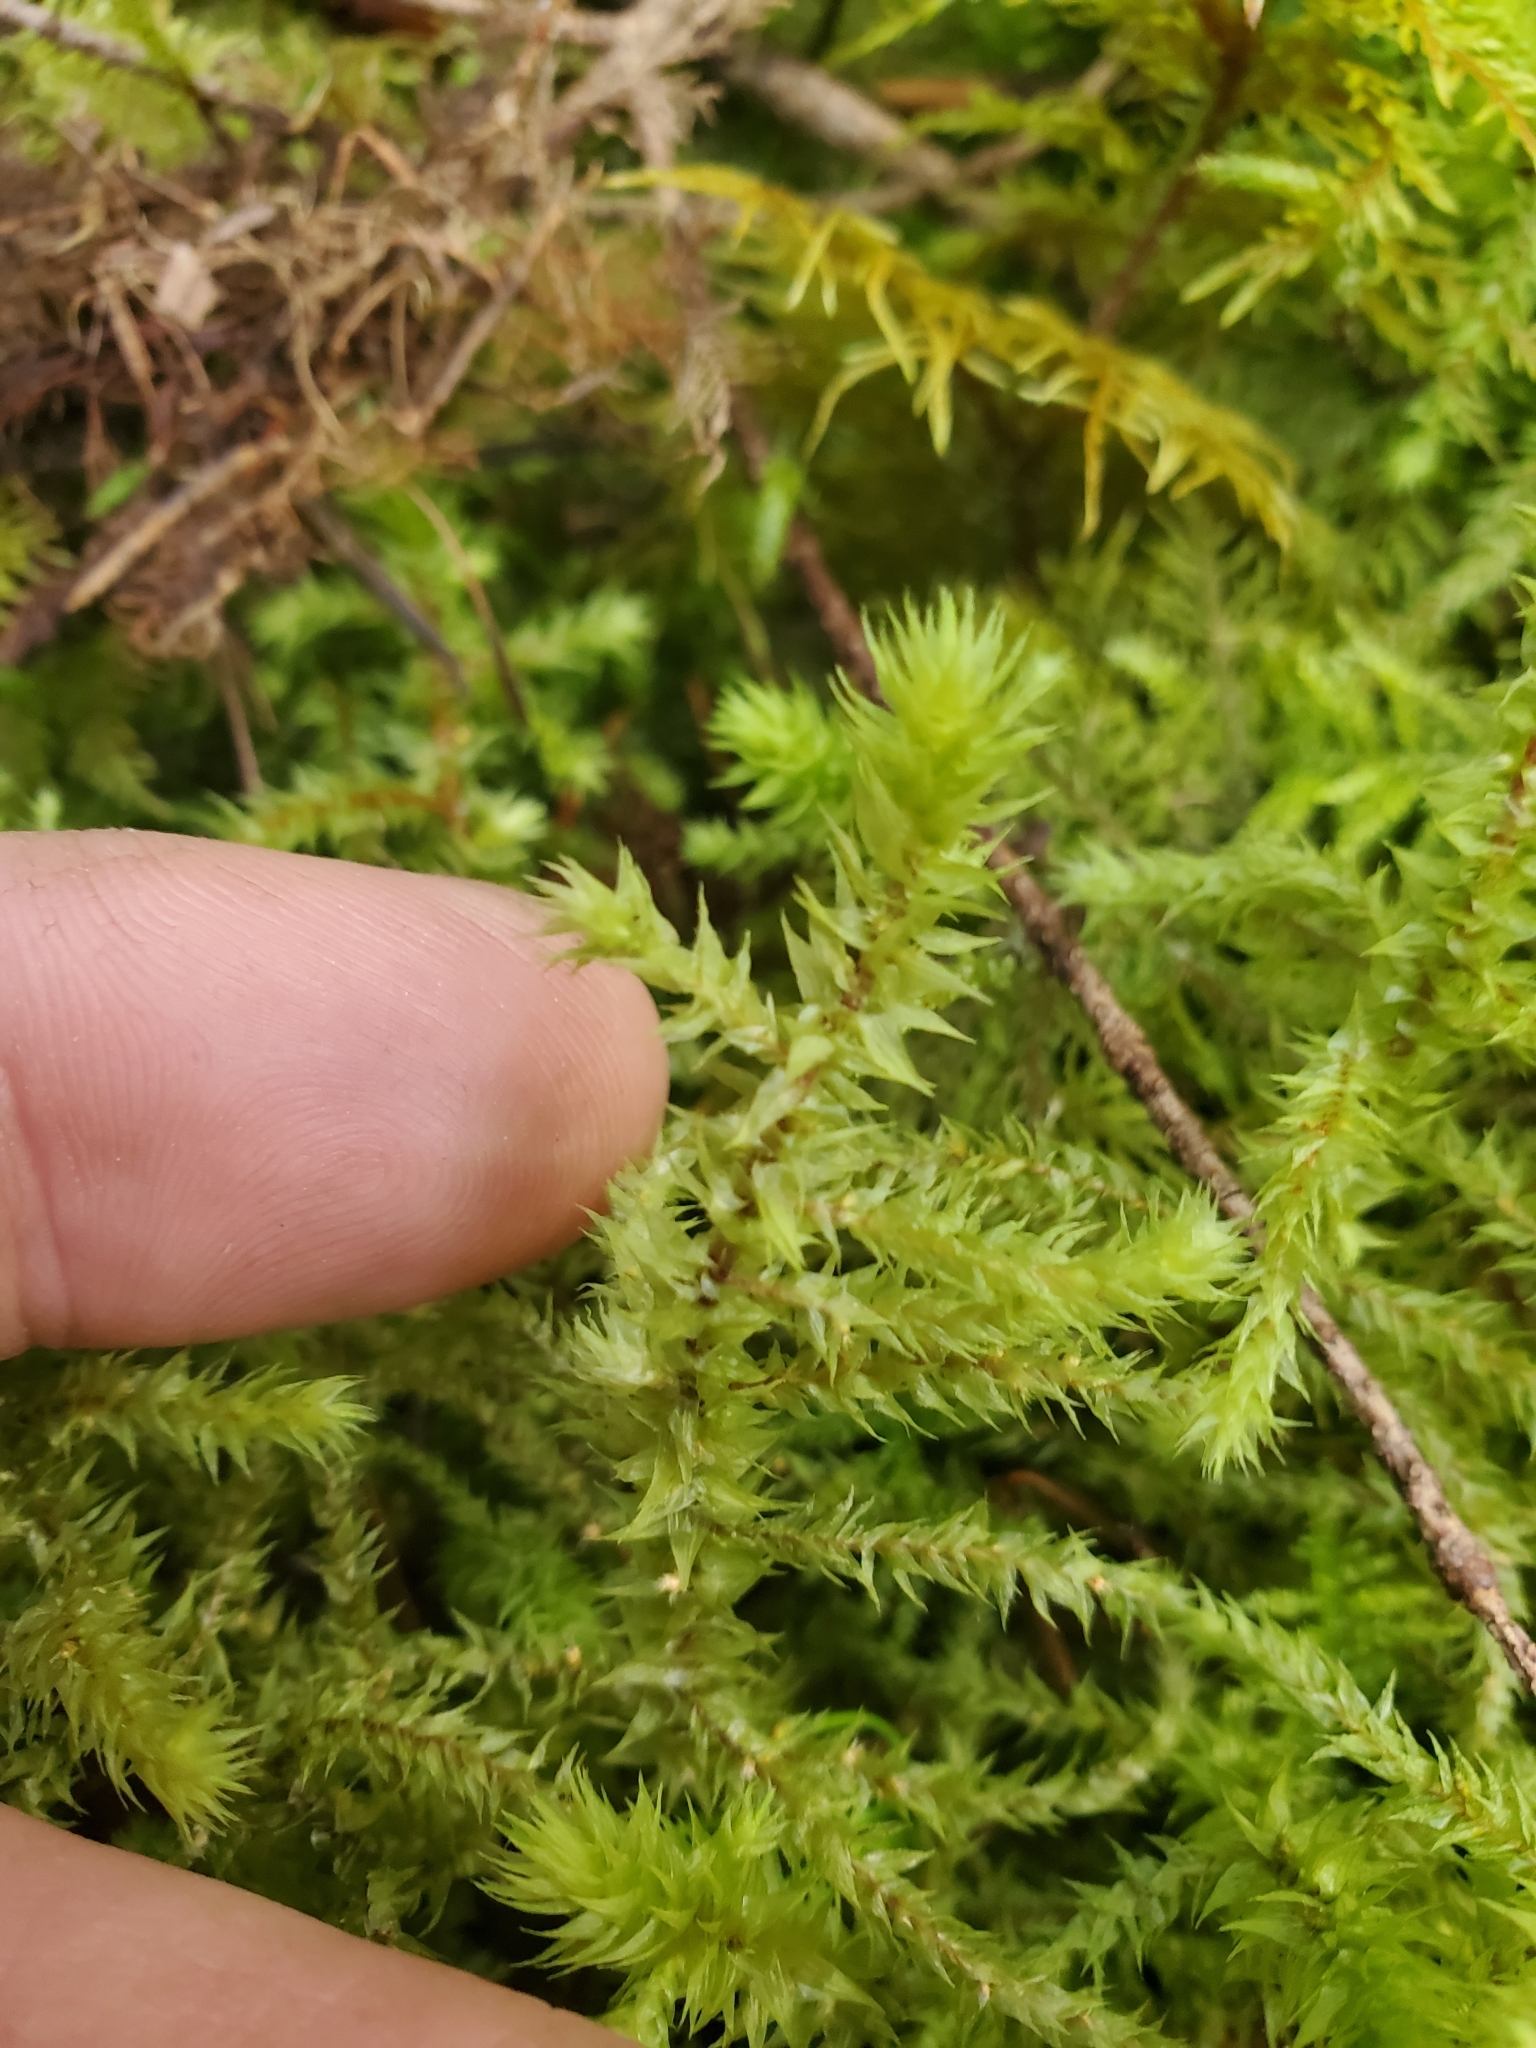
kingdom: Plantae
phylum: Bryophyta
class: Bryopsida
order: Hypnales
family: Hylocomiaceae
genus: Hylocomiadelphus
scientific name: Hylocomiadelphus triquetrus
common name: Rough goose neck moss
